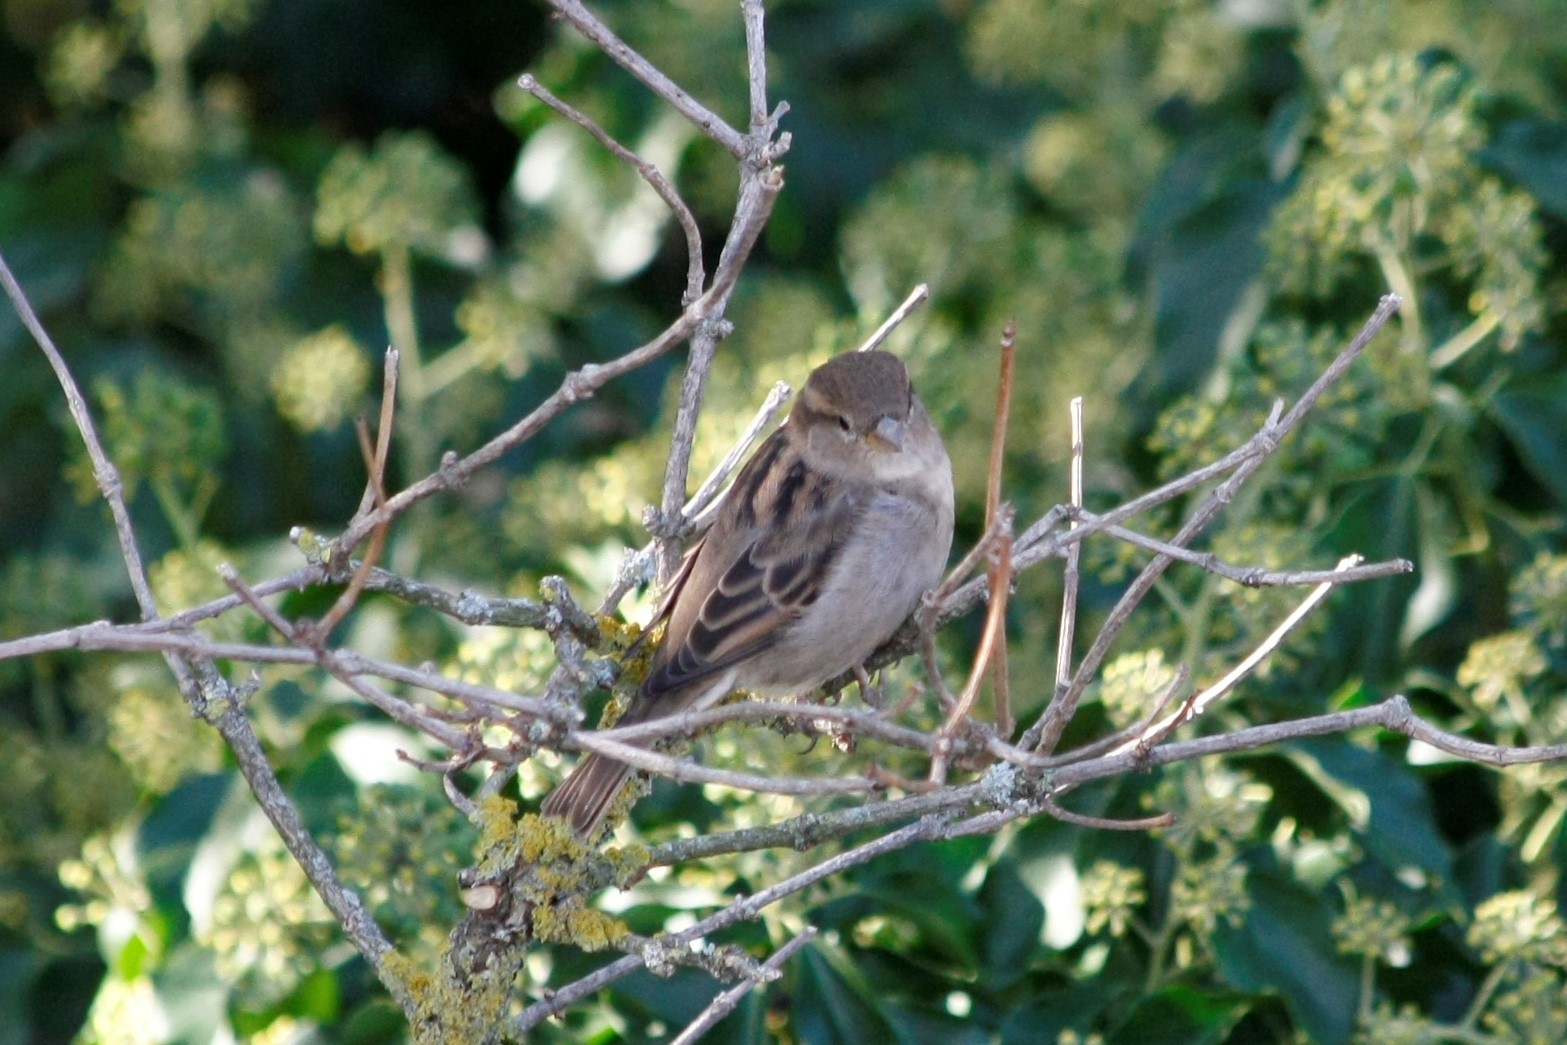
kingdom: Animalia
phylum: Chordata
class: Aves
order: Passeriformes
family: Passeridae
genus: Passer
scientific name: Passer domesticus
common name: House sparrow
